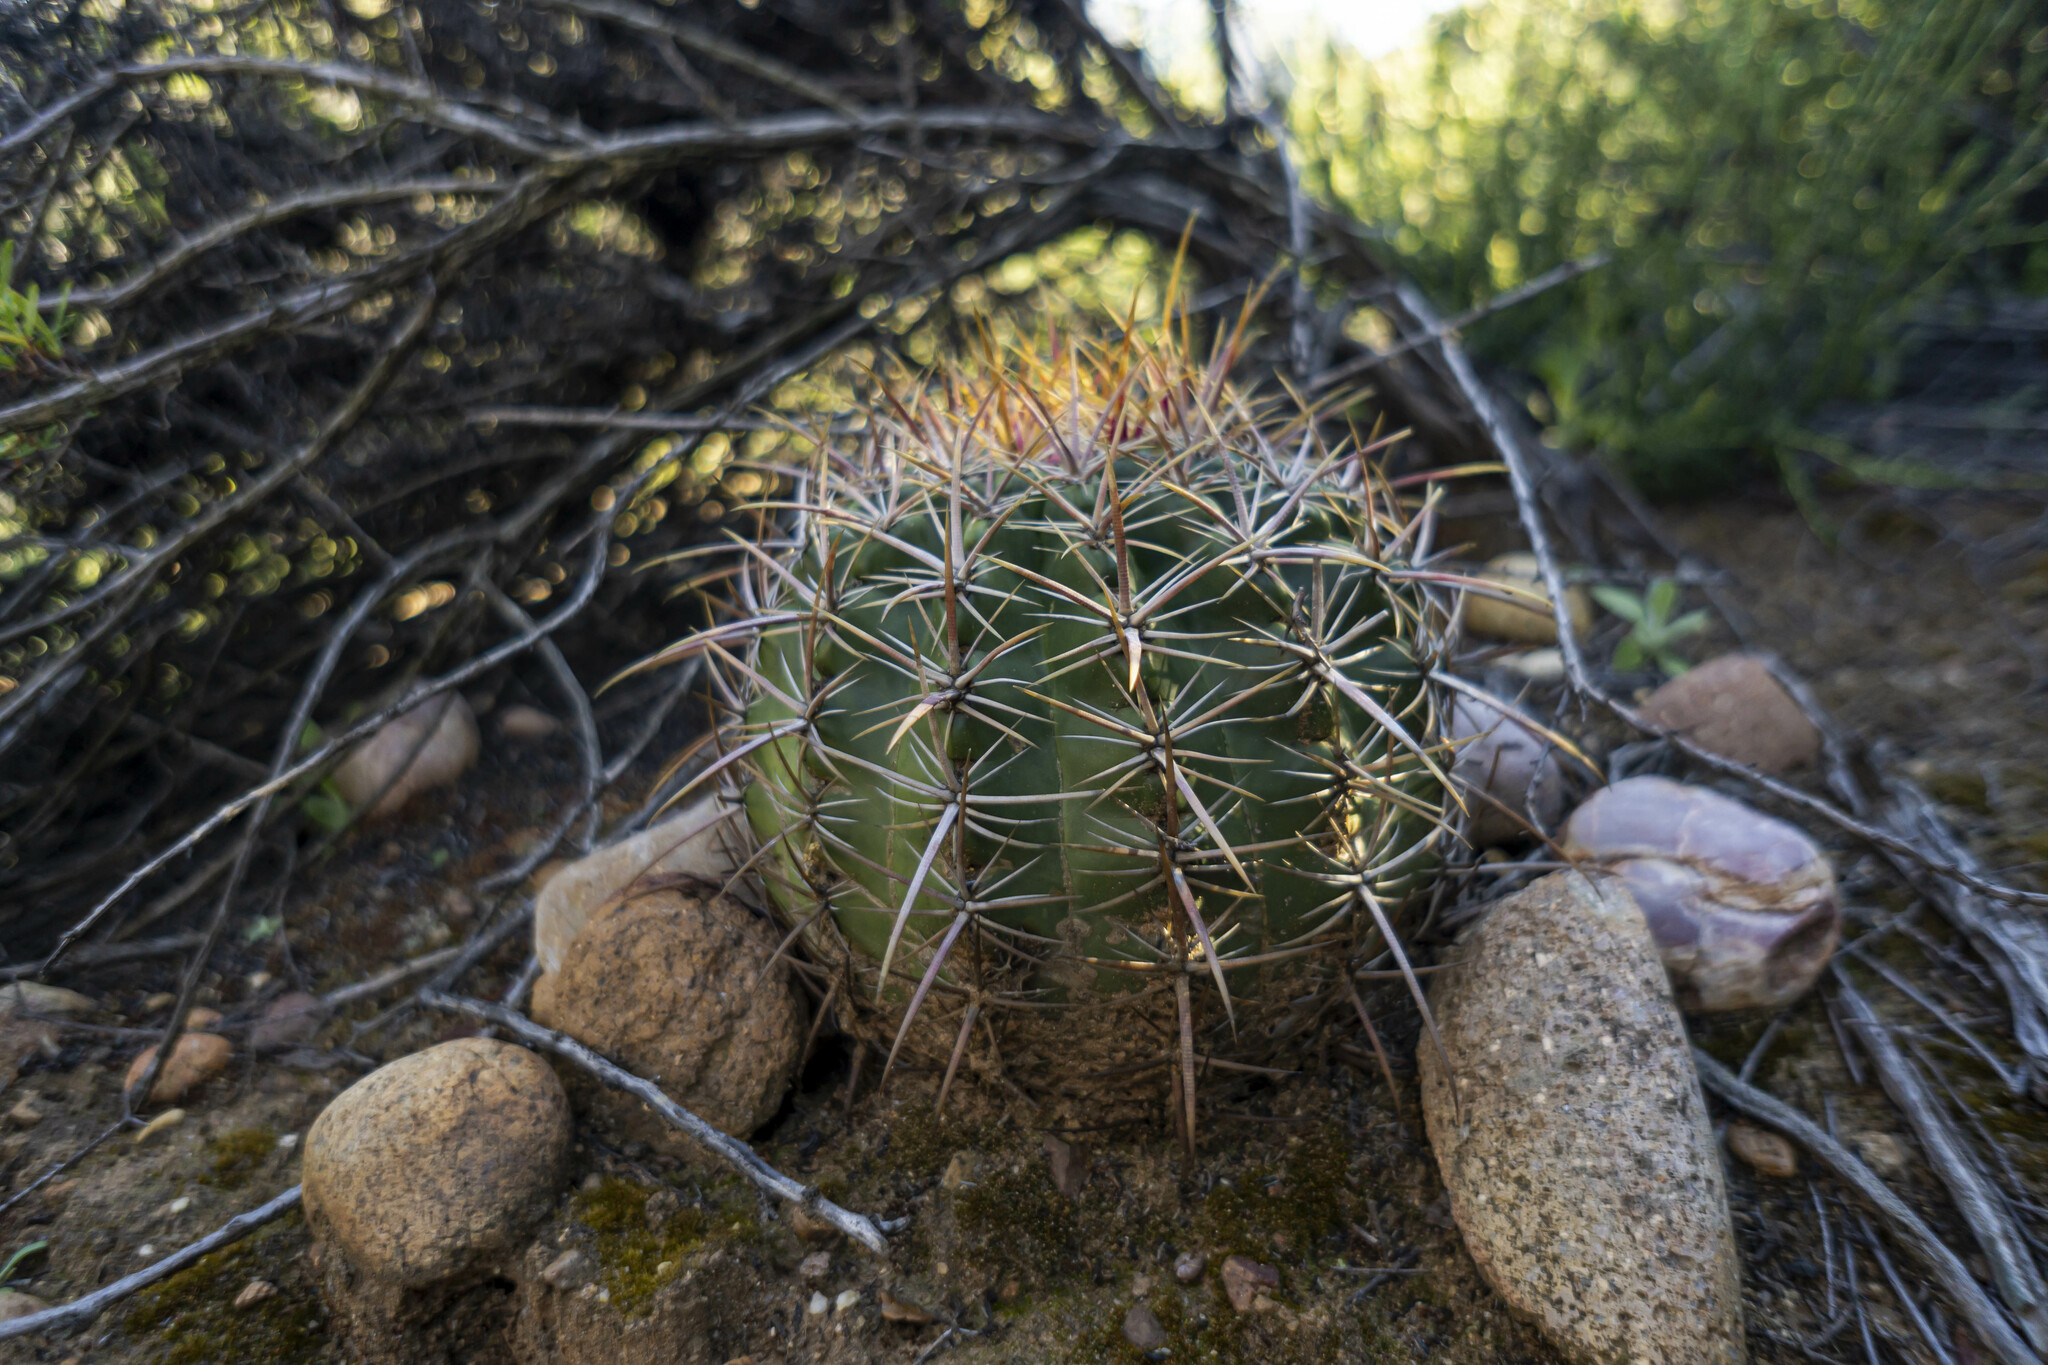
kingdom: Plantae
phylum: Tracheophyta
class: Magnoliopsida
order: Caryophyllales
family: Cactaceae
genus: Ferocactus
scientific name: Ferocactus viridescens
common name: San diego barrel cactus
